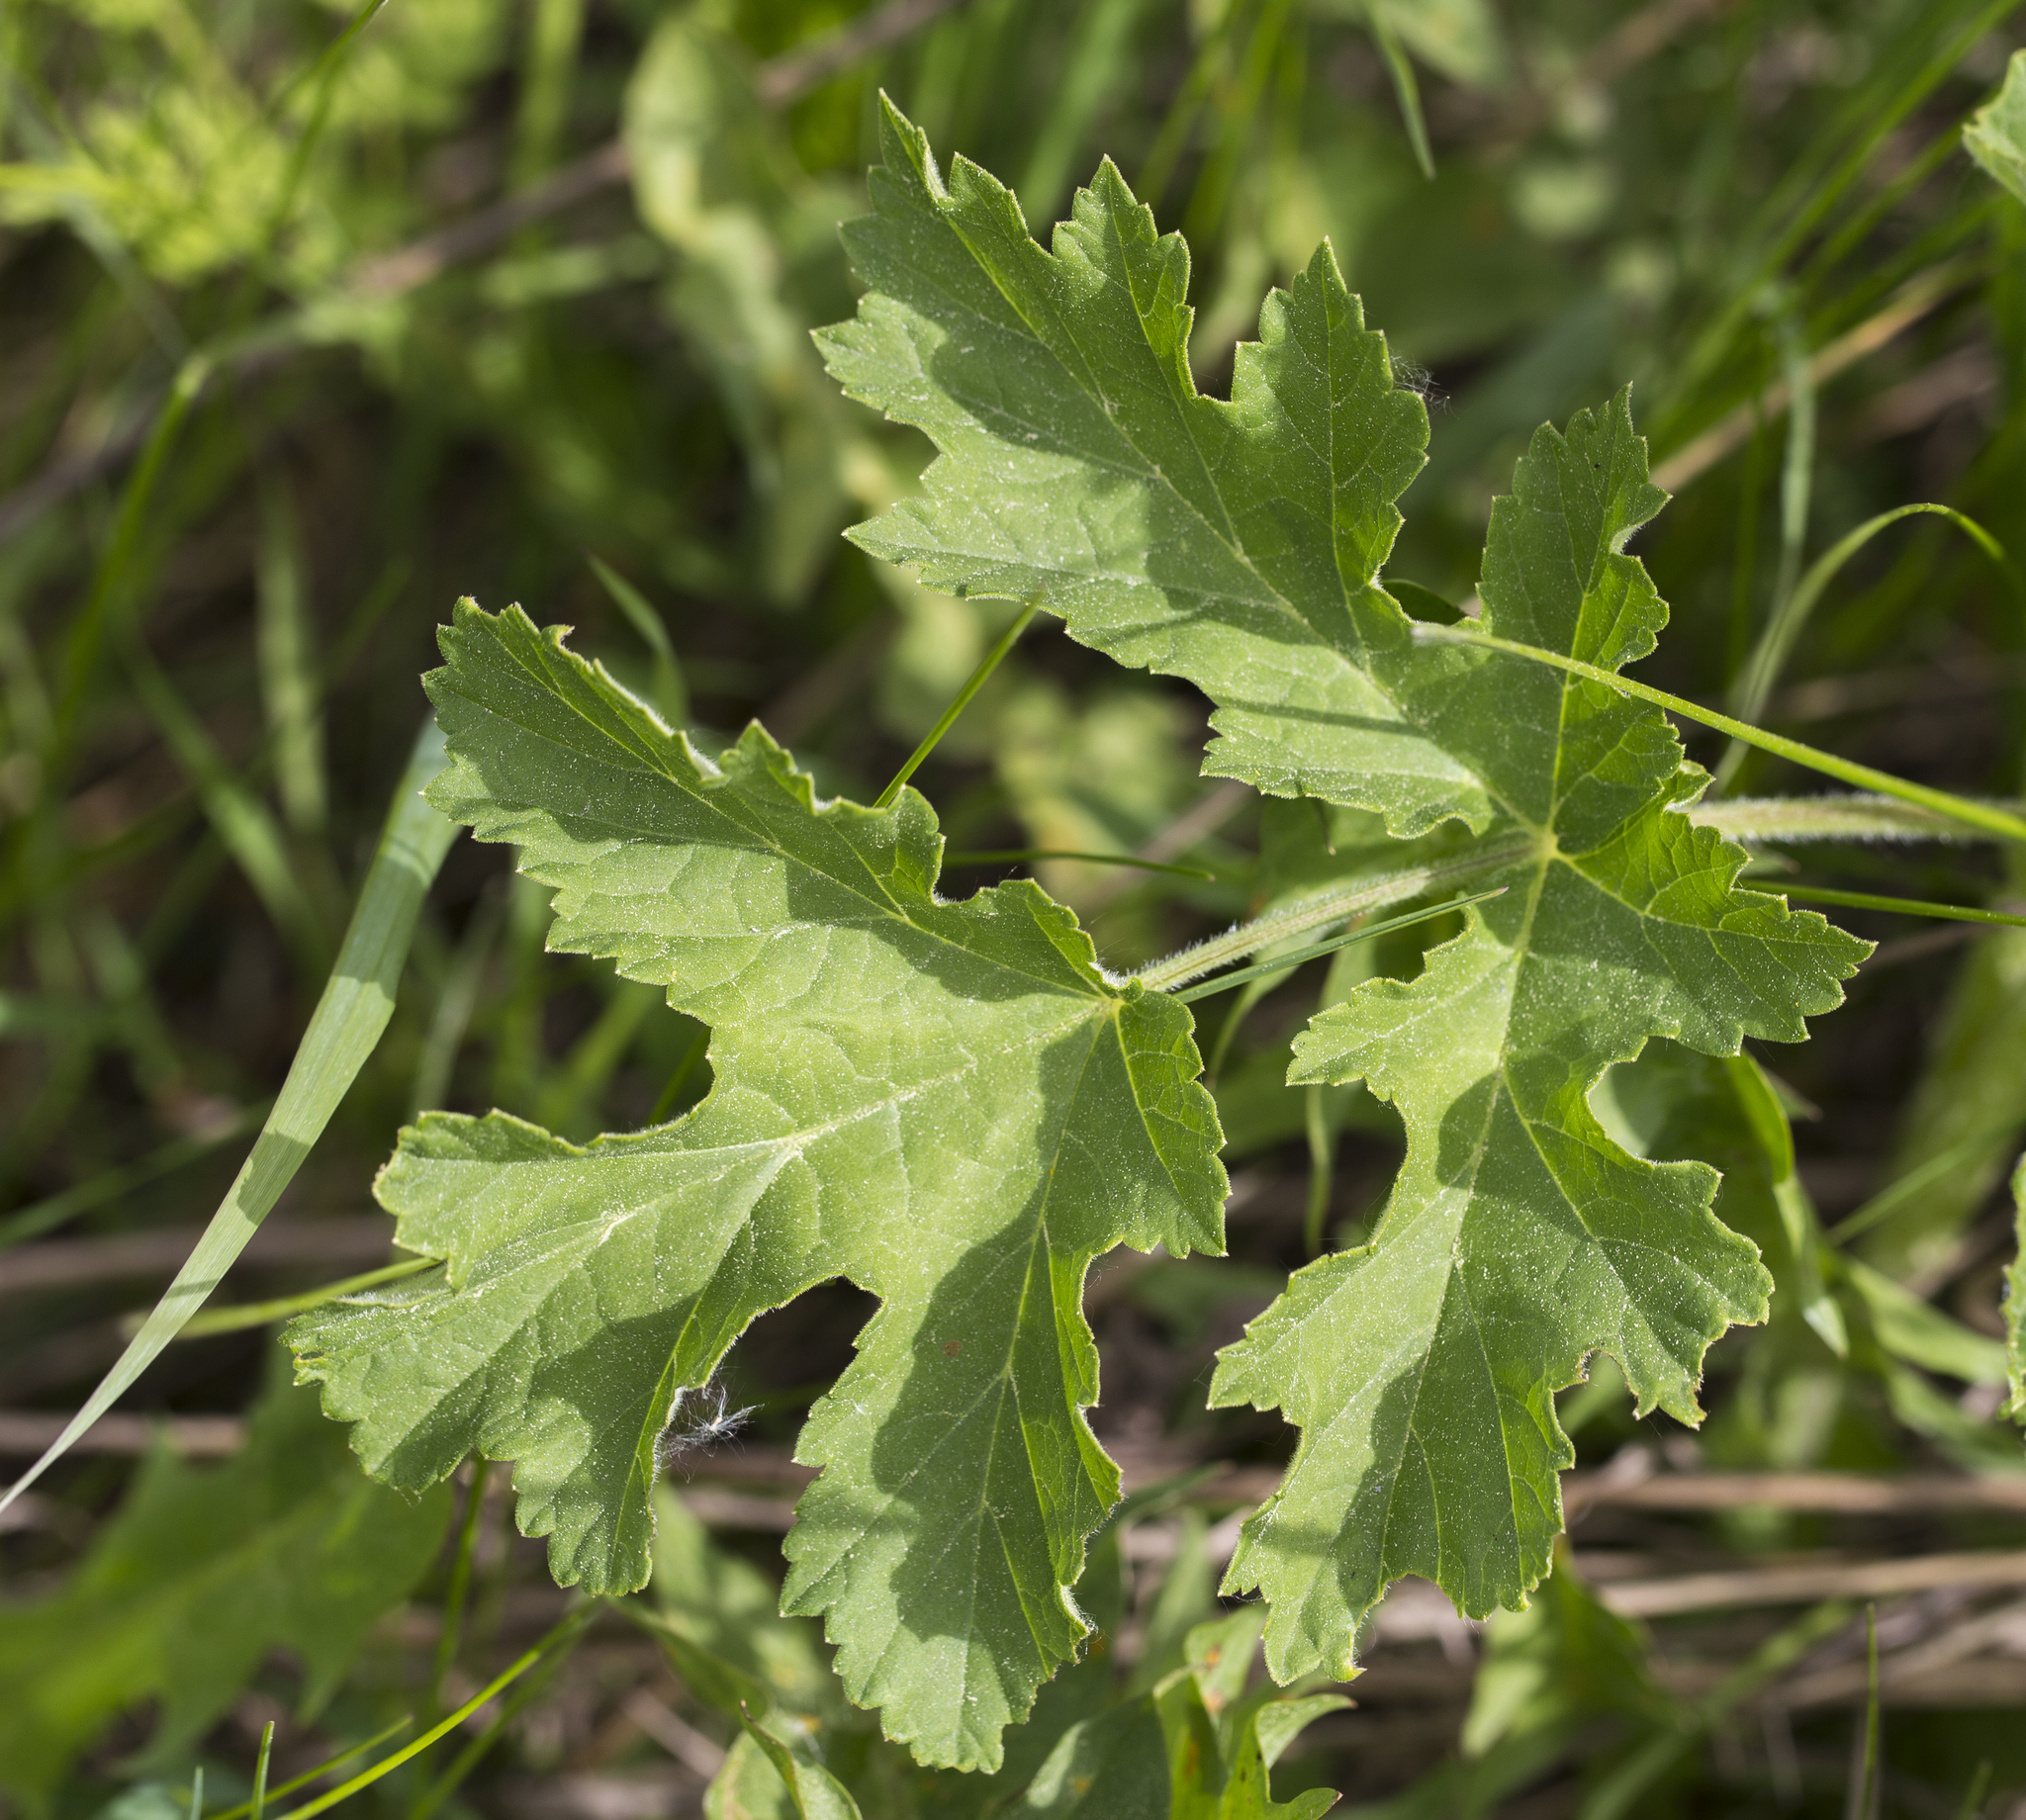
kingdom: Plantae
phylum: Tracheophyta
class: Magnoliopsida
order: Apiales
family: Apiaceae
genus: Heracleum
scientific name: Heracleum sphondylium
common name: Hogweed
